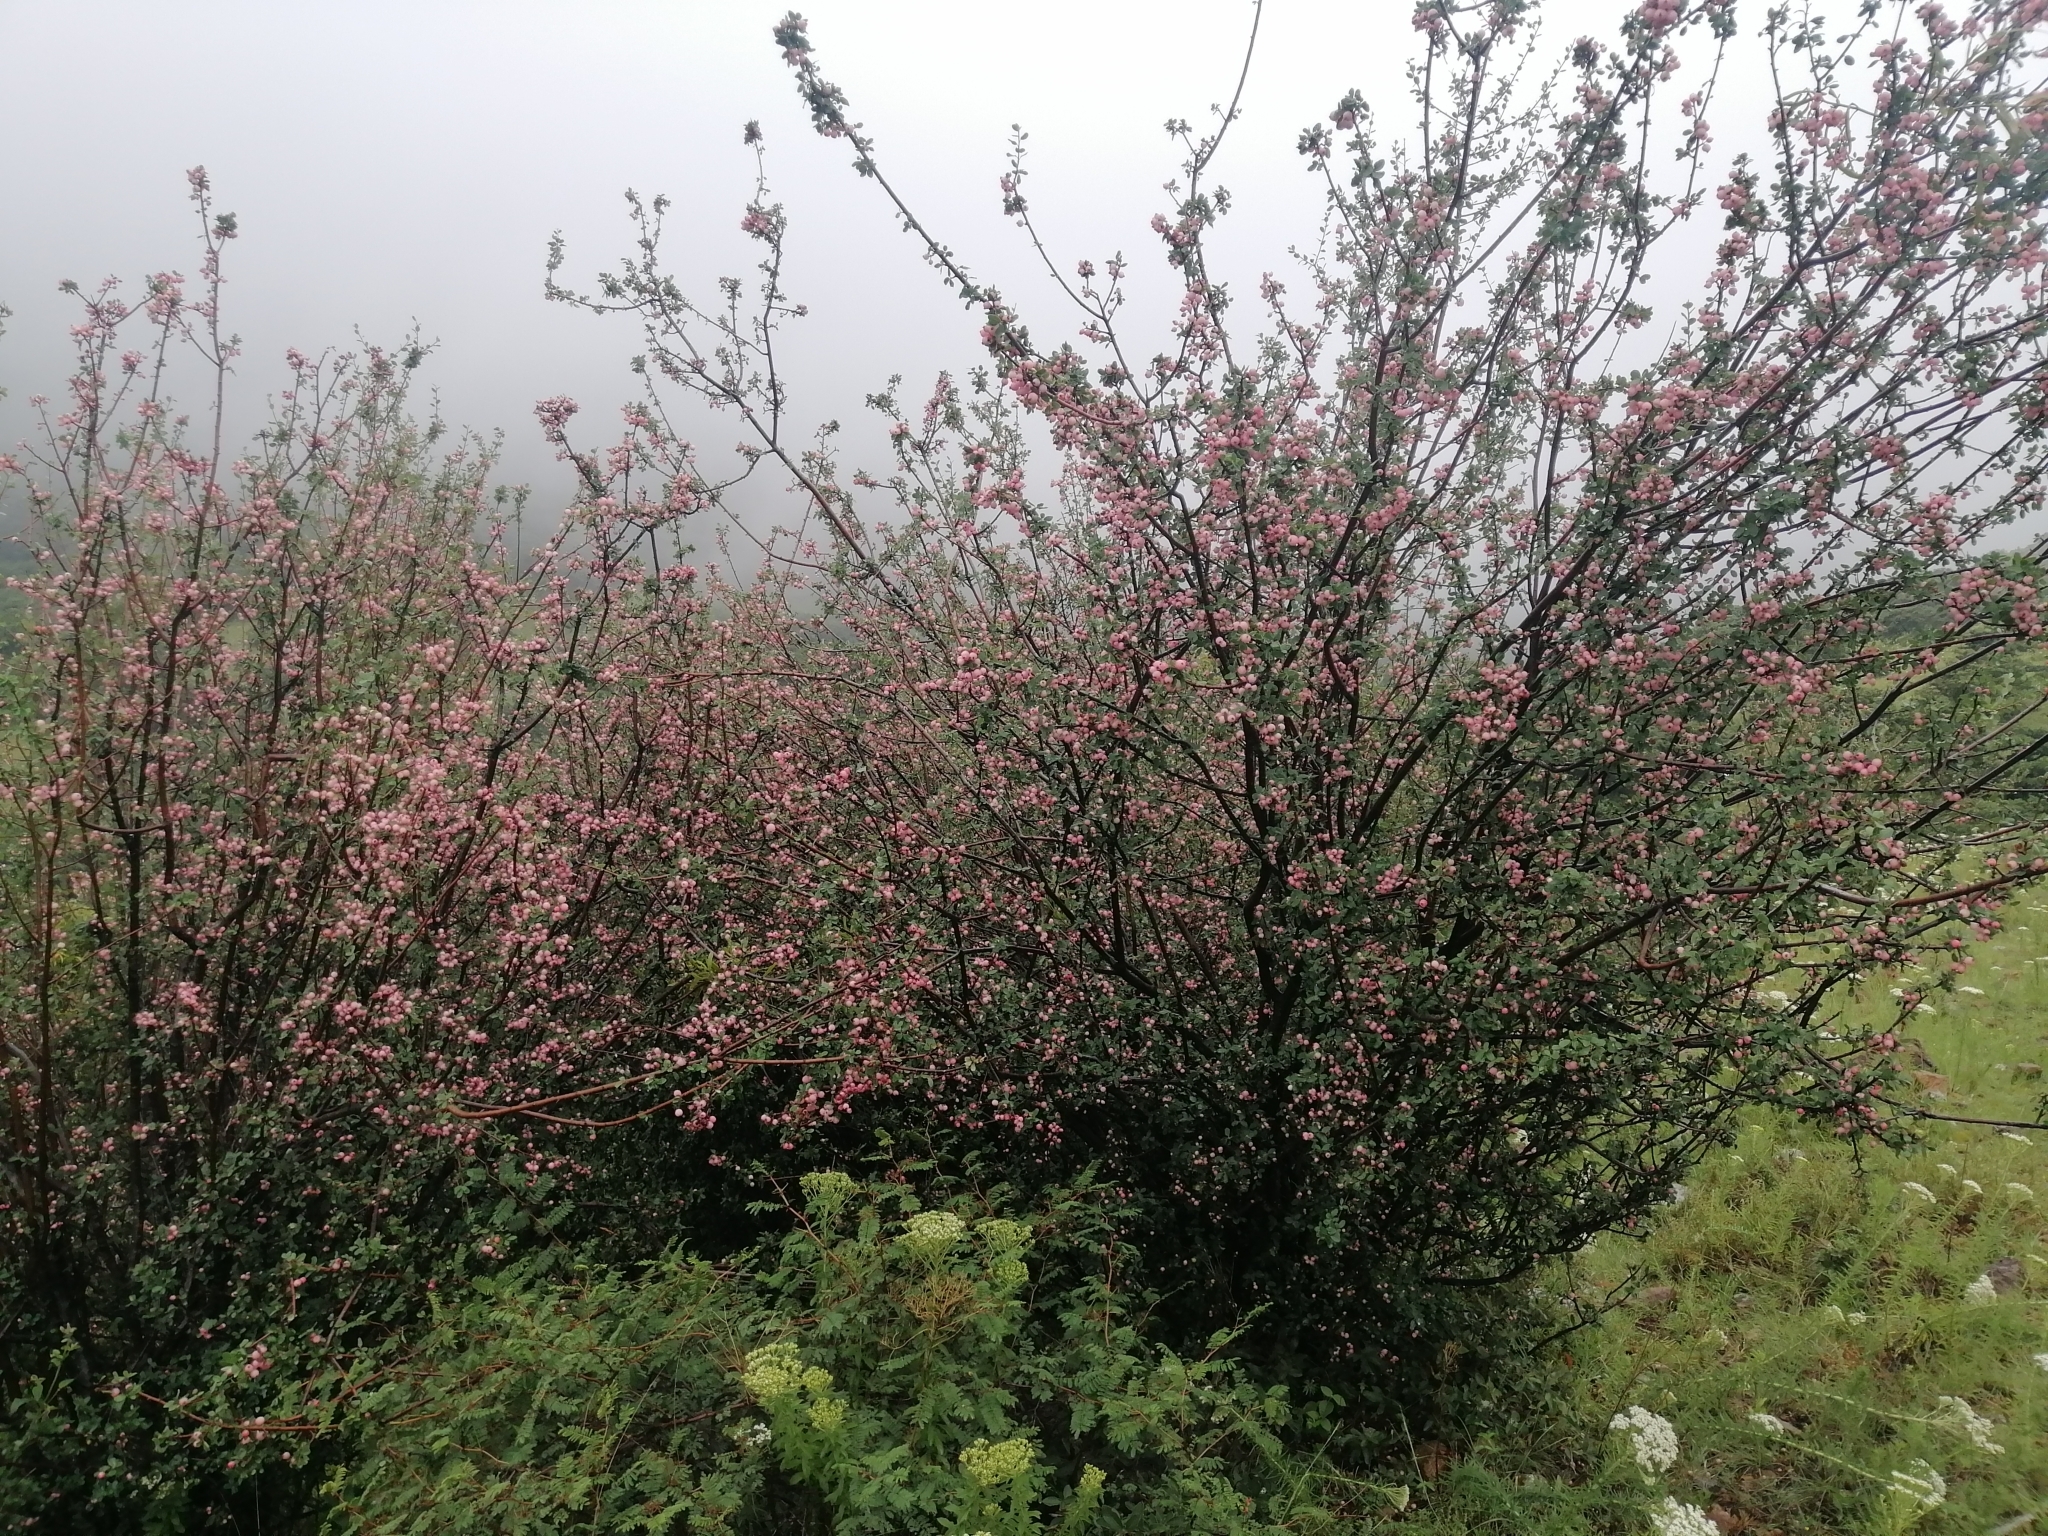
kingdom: Plantae
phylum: Tracheophyta
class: Magnoliopsida
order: Rosales
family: Rosaceae
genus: Malacomeles
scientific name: Malacomeles denticulata
